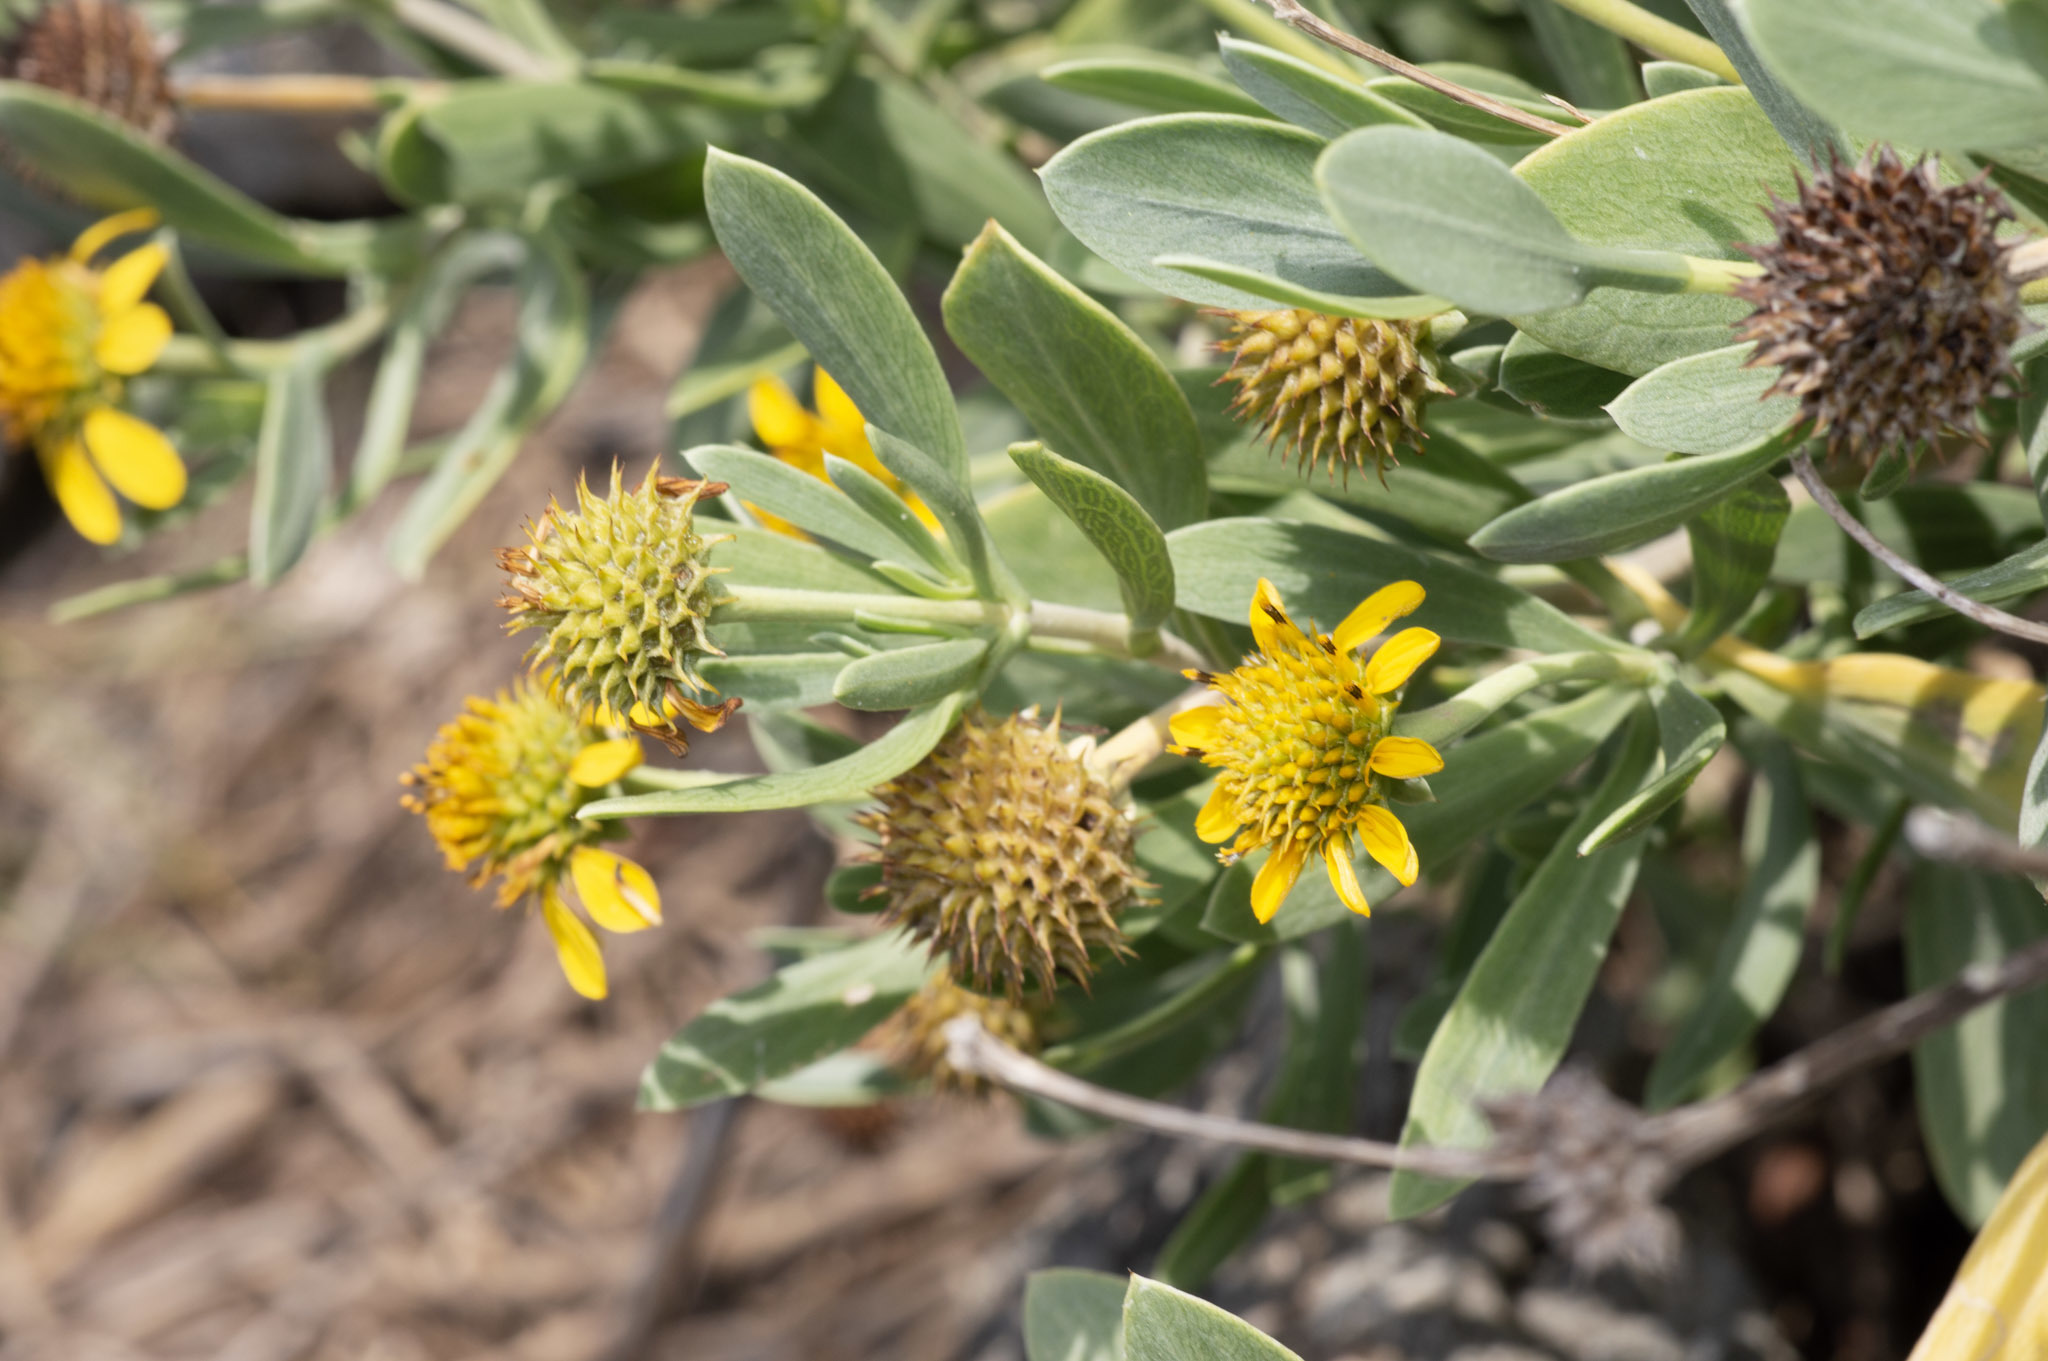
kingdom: Plantae
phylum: Tracheophyta
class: Magnoliopsida
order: Asterales
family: Asteraceae
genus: Borrichia
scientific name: Borrichia frutescens
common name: Sea oxeye
